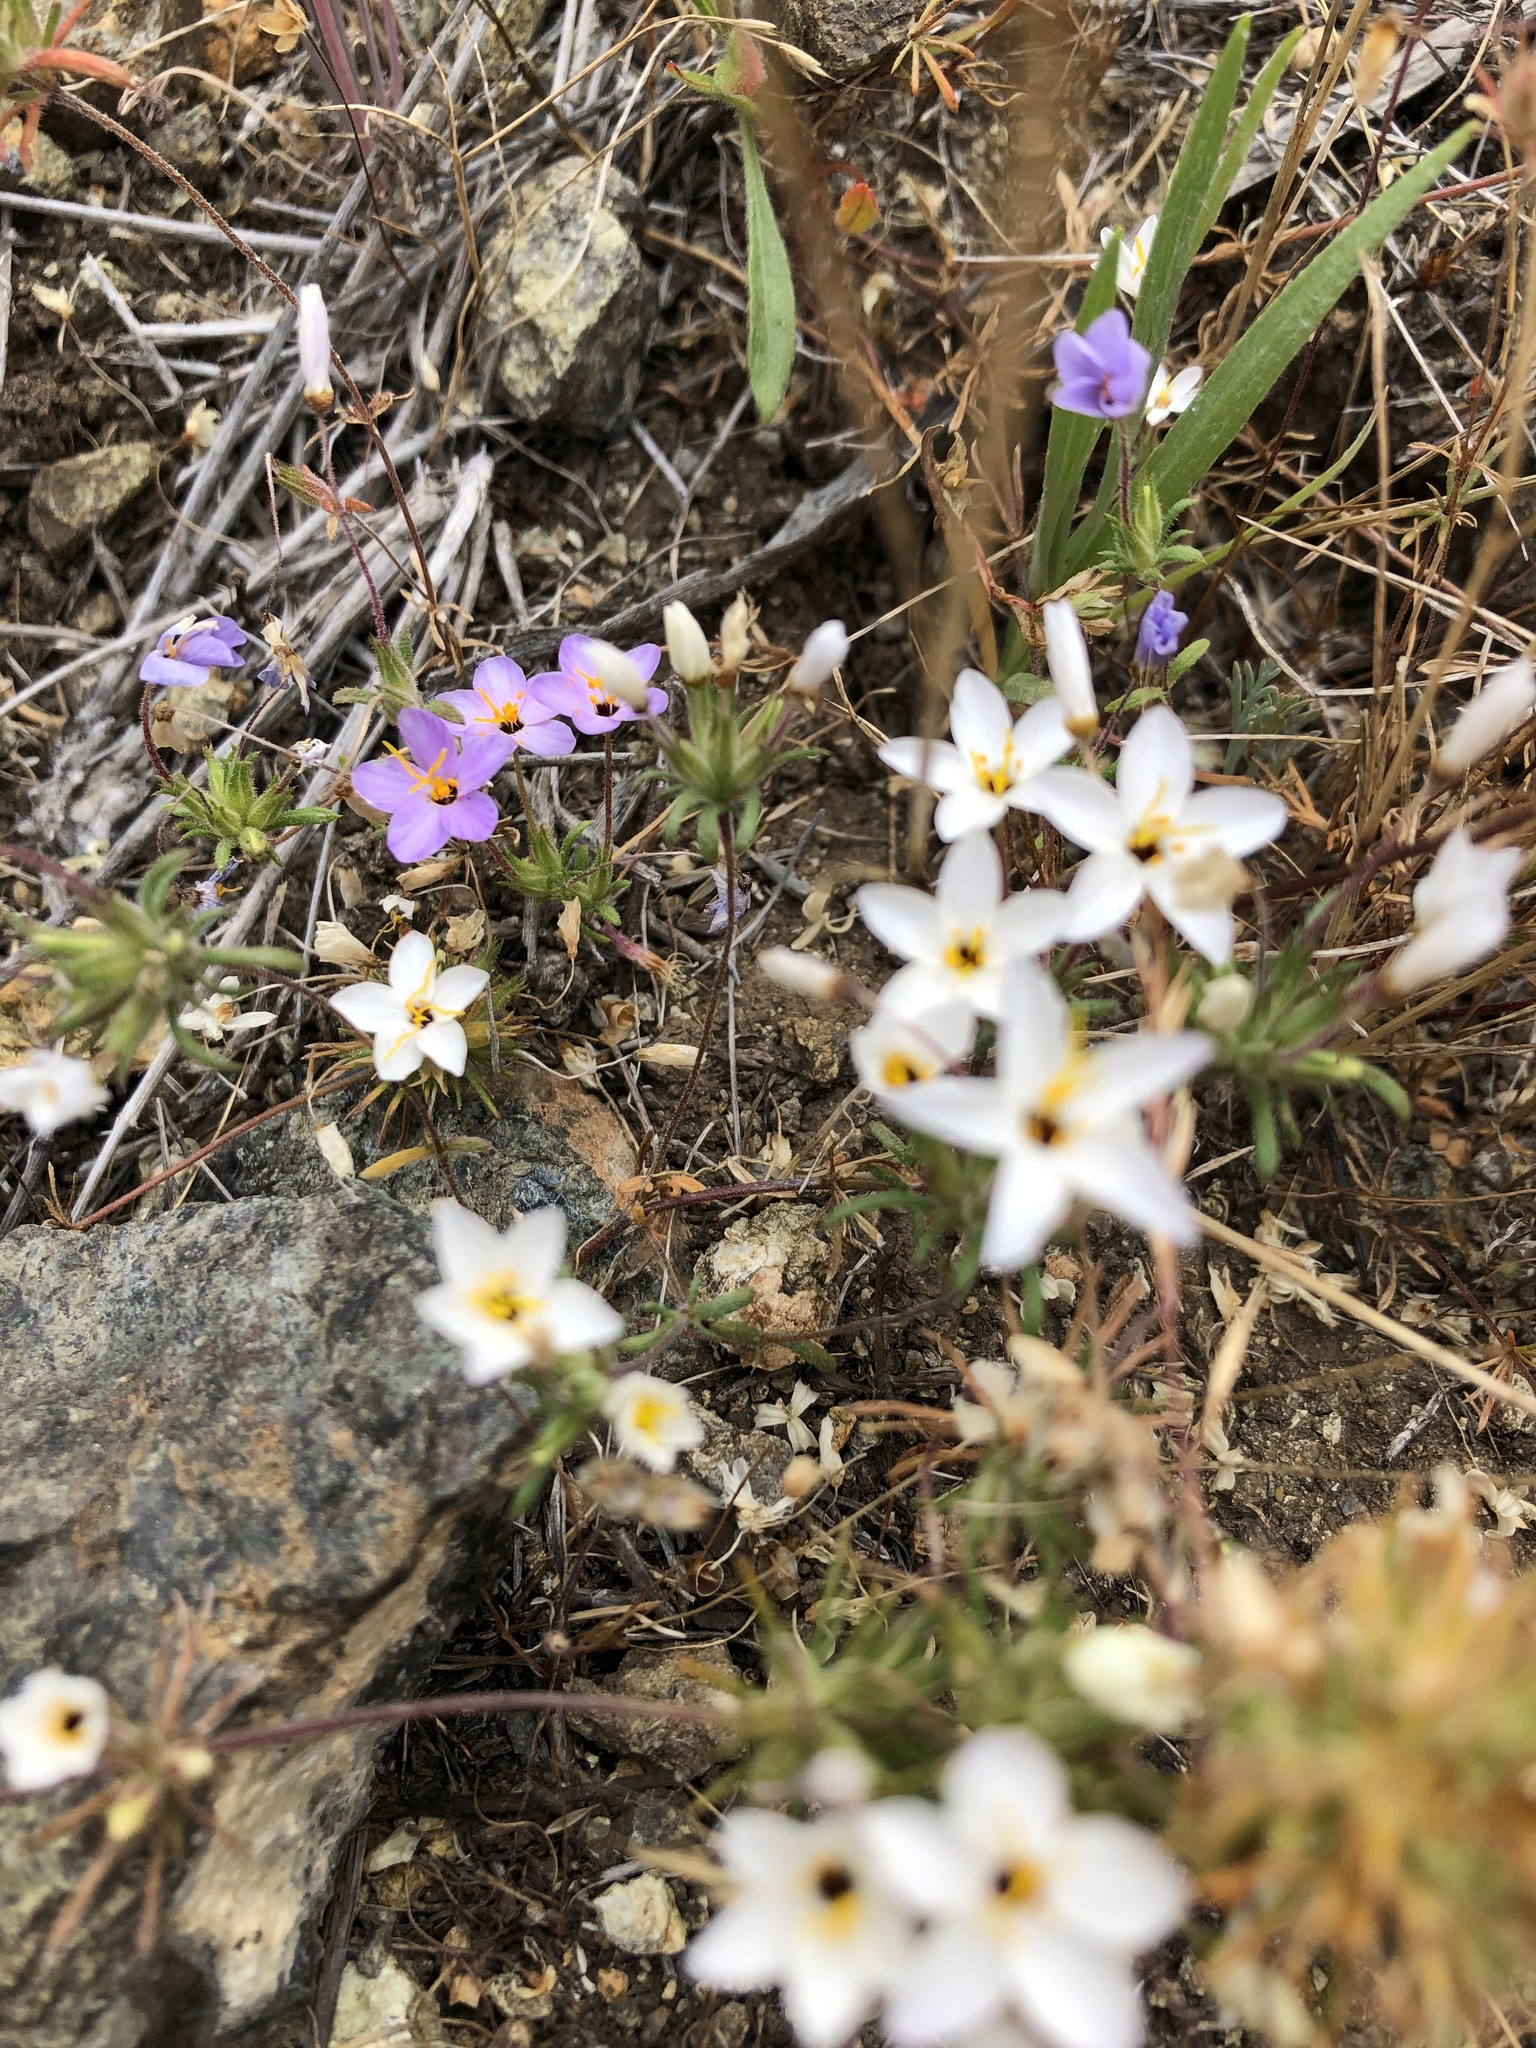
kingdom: Plantae
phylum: Tracheophyta
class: Magnoliopsida
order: Ericales
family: Polemoniaceae
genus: Leptosiphon
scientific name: Leptosiphon parviflorus
